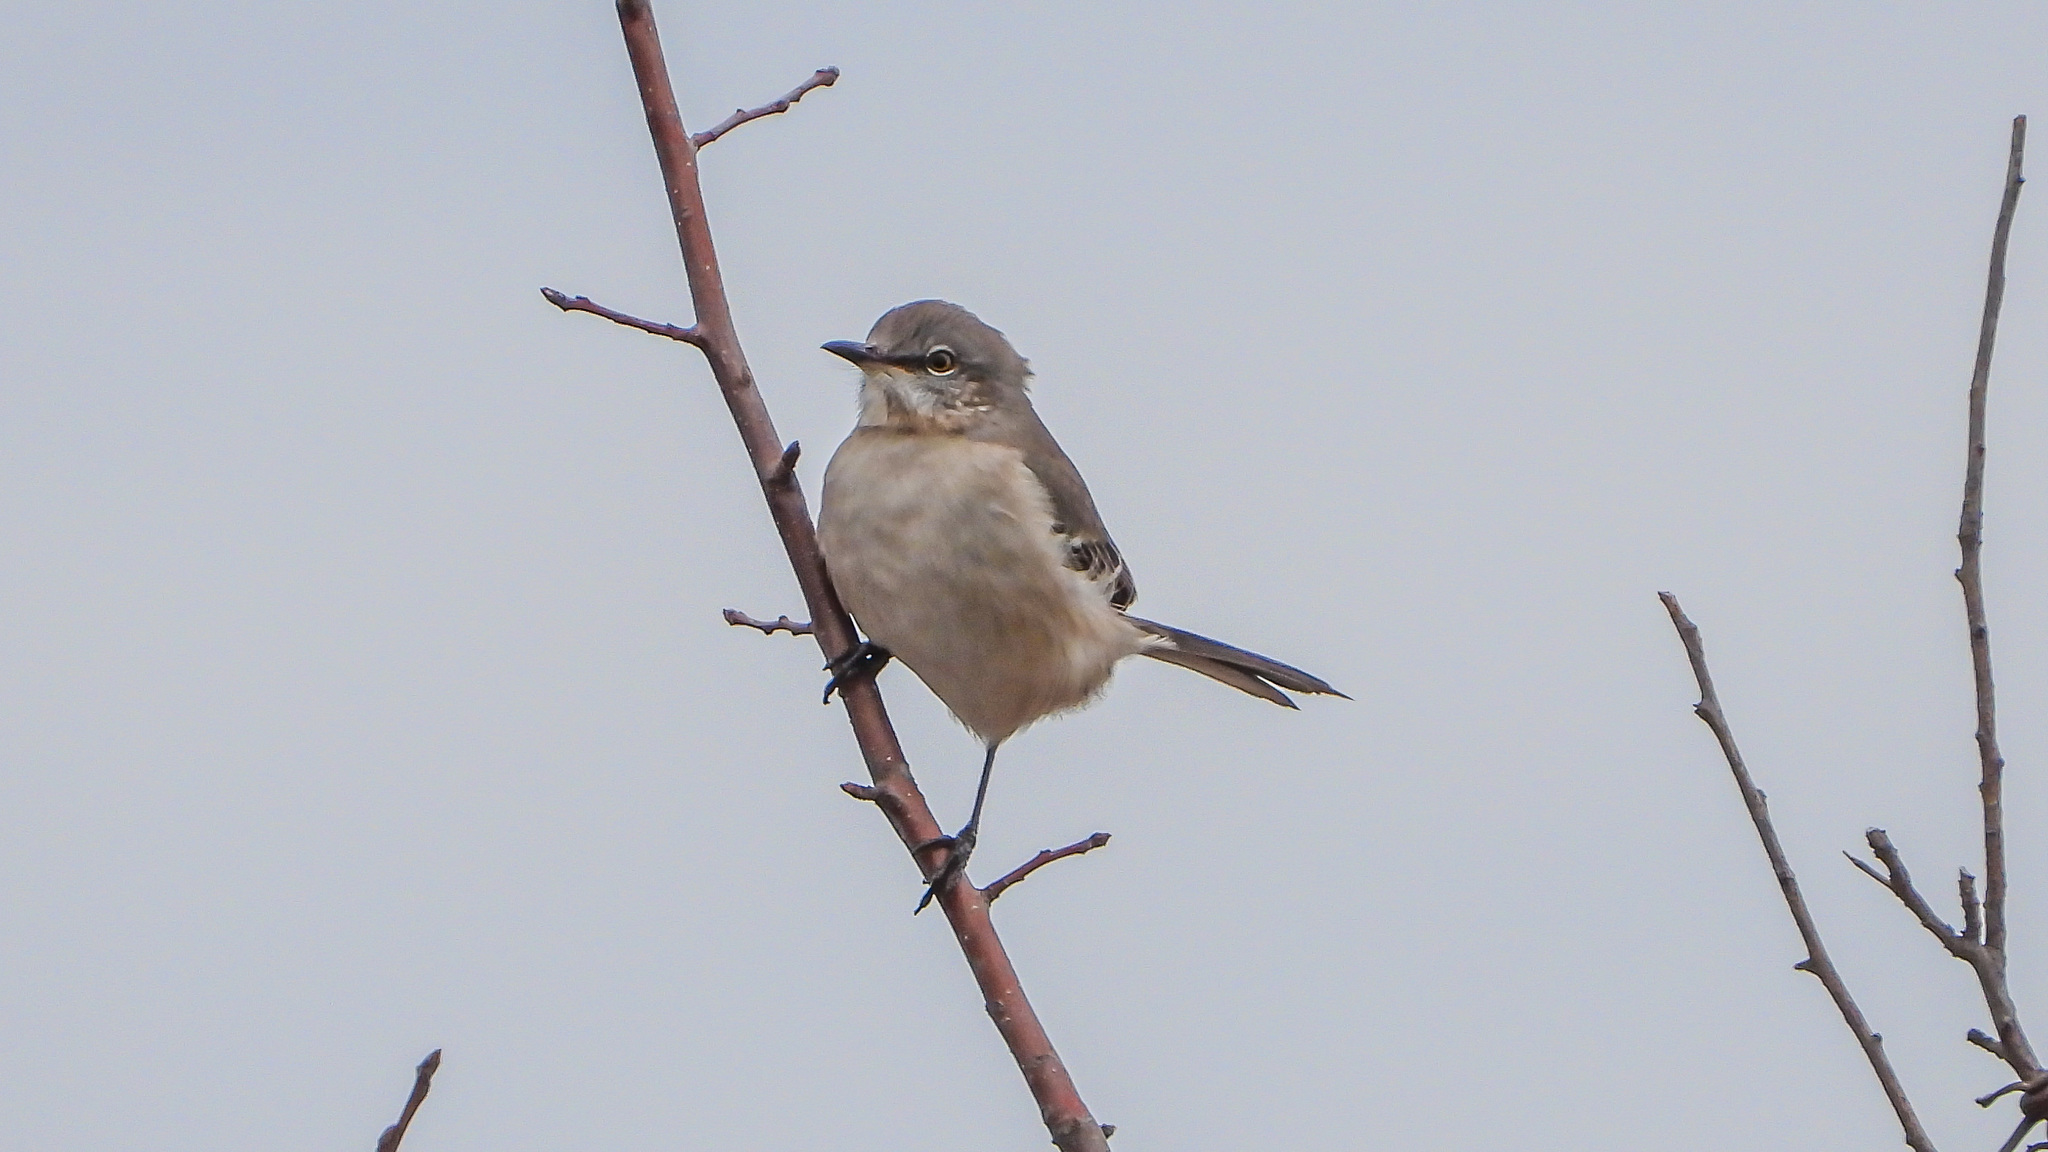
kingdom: Animalia
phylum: Chordata
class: Aves
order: Passeriformes
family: Mimidae
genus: Mimus
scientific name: Mimus polyglottos
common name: Northern mockingbird
